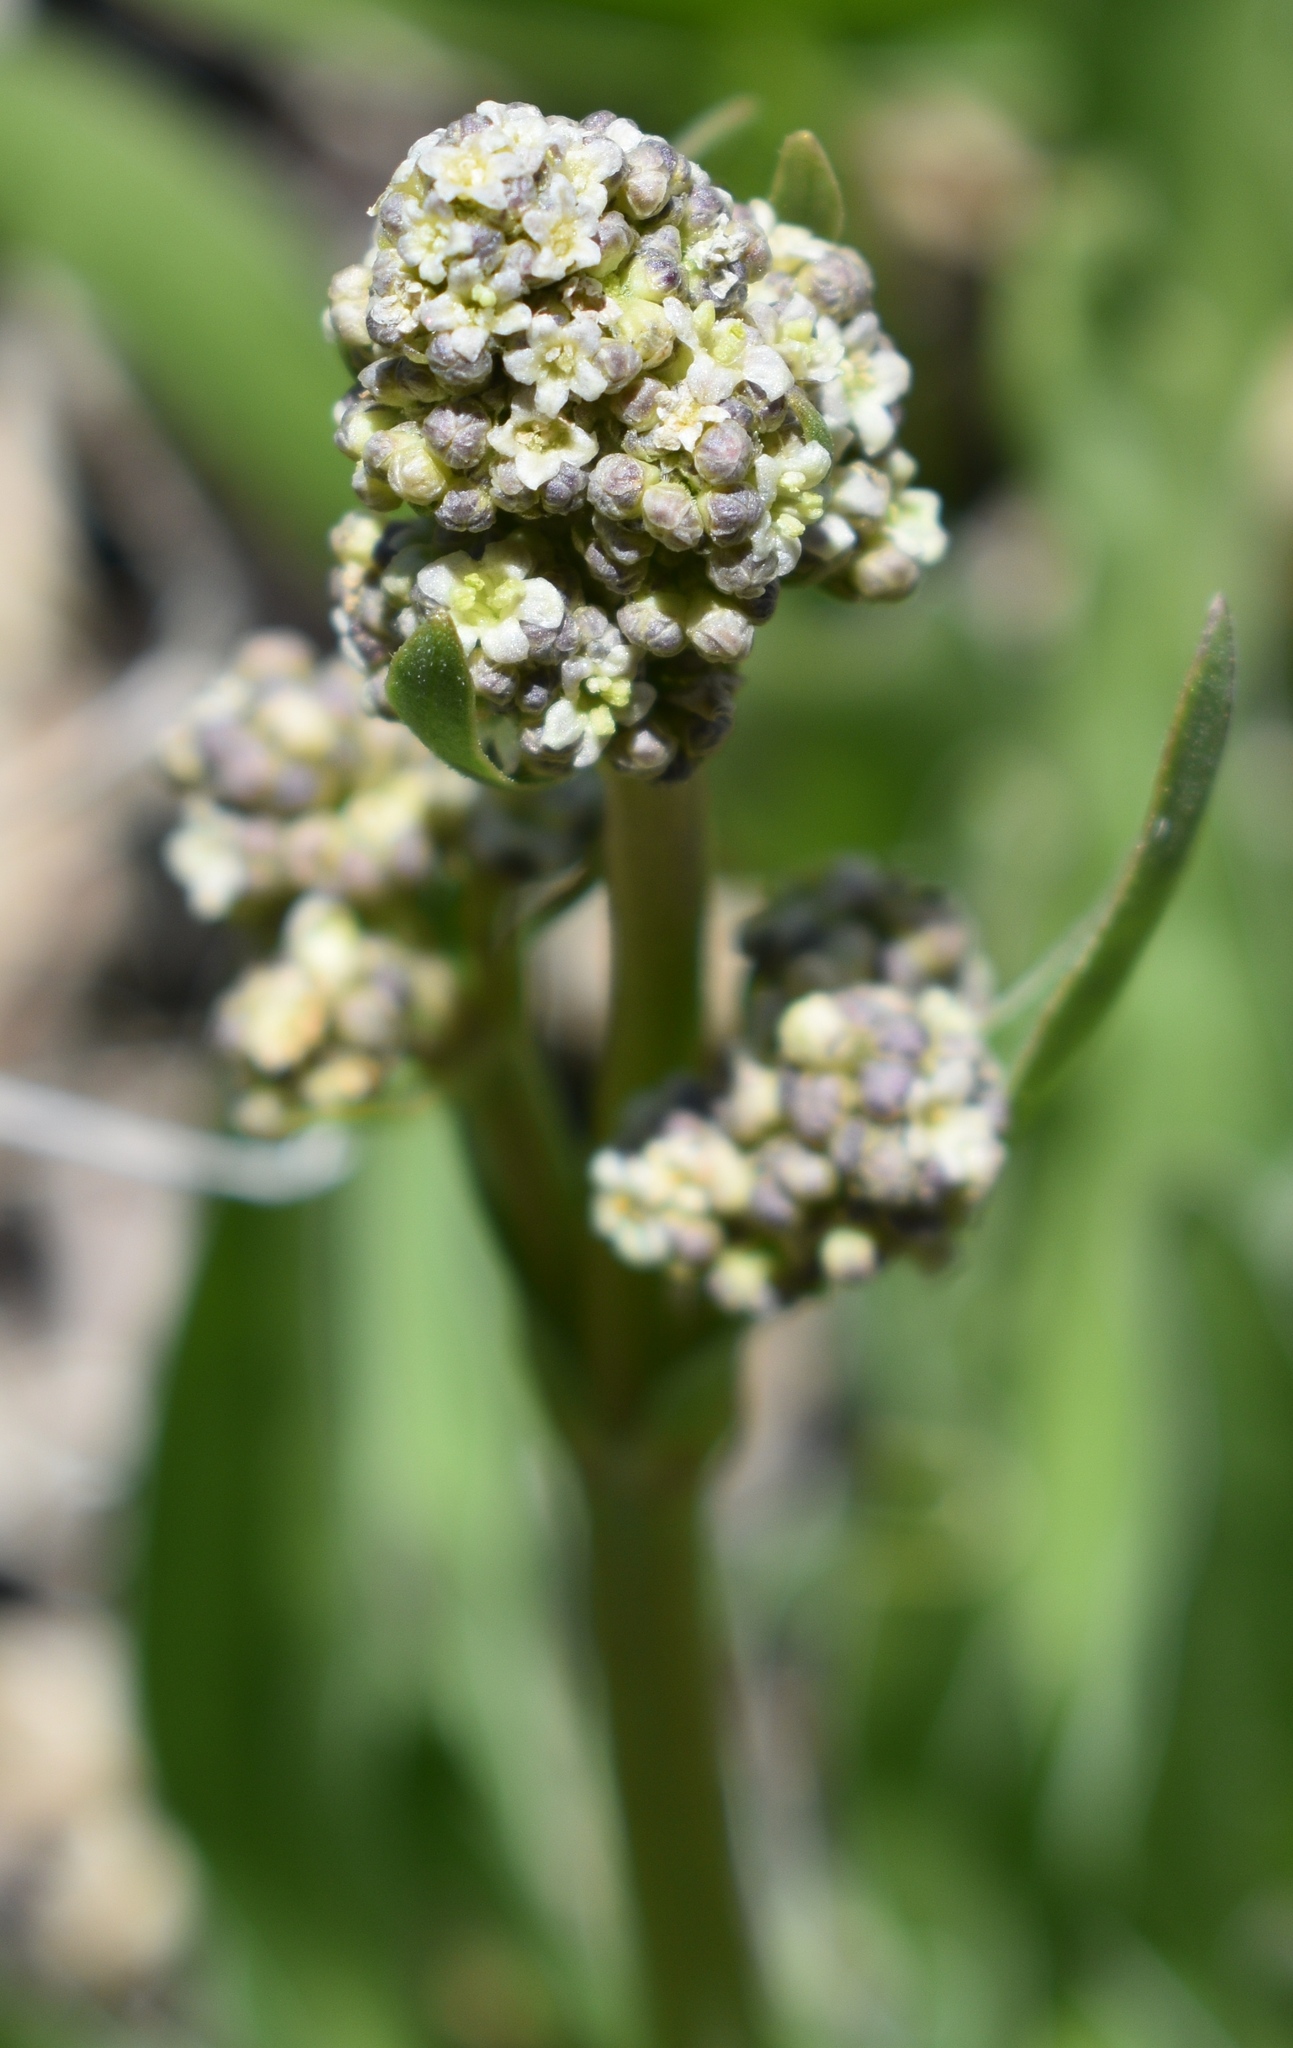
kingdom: Plantae
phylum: Tracheophyta
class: Magnoliopsida
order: Dipsacales
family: Caprifoliaceae
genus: Valeriana
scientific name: Valeriana edulis
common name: Taproot valerian
